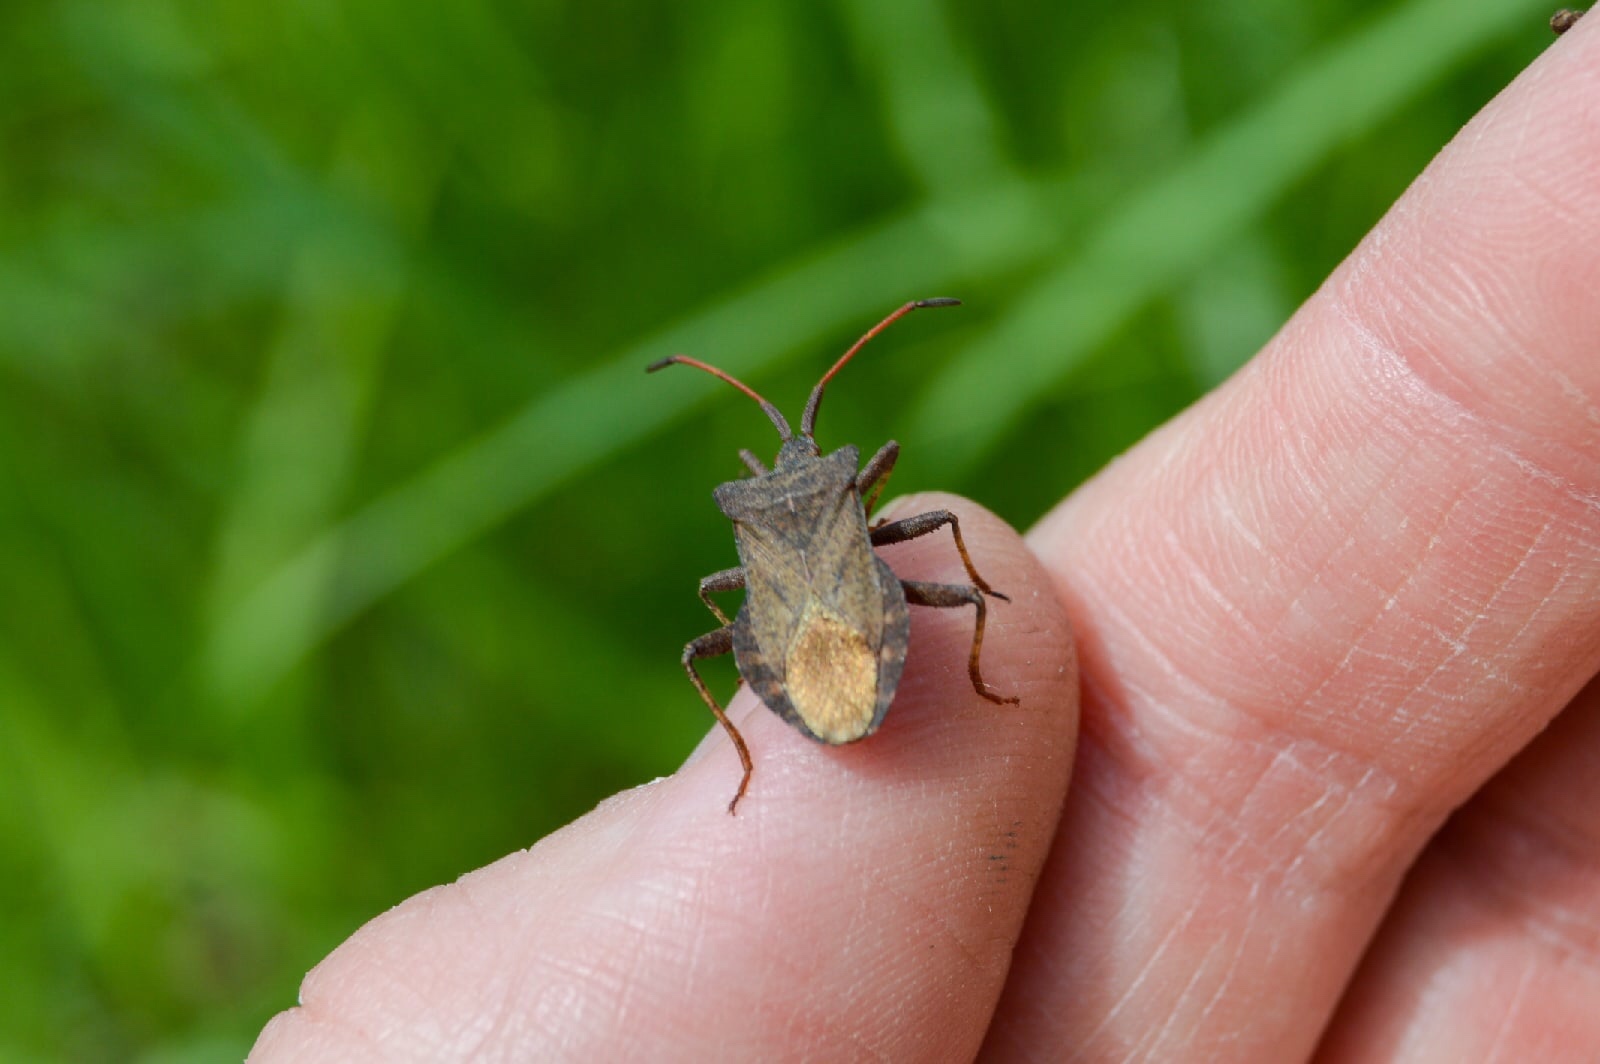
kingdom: Animalia
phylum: Arthropoda
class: Insecta
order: Hemiptera
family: Coreidae
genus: Coreus
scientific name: Coreus marginatus
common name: Dock bug
